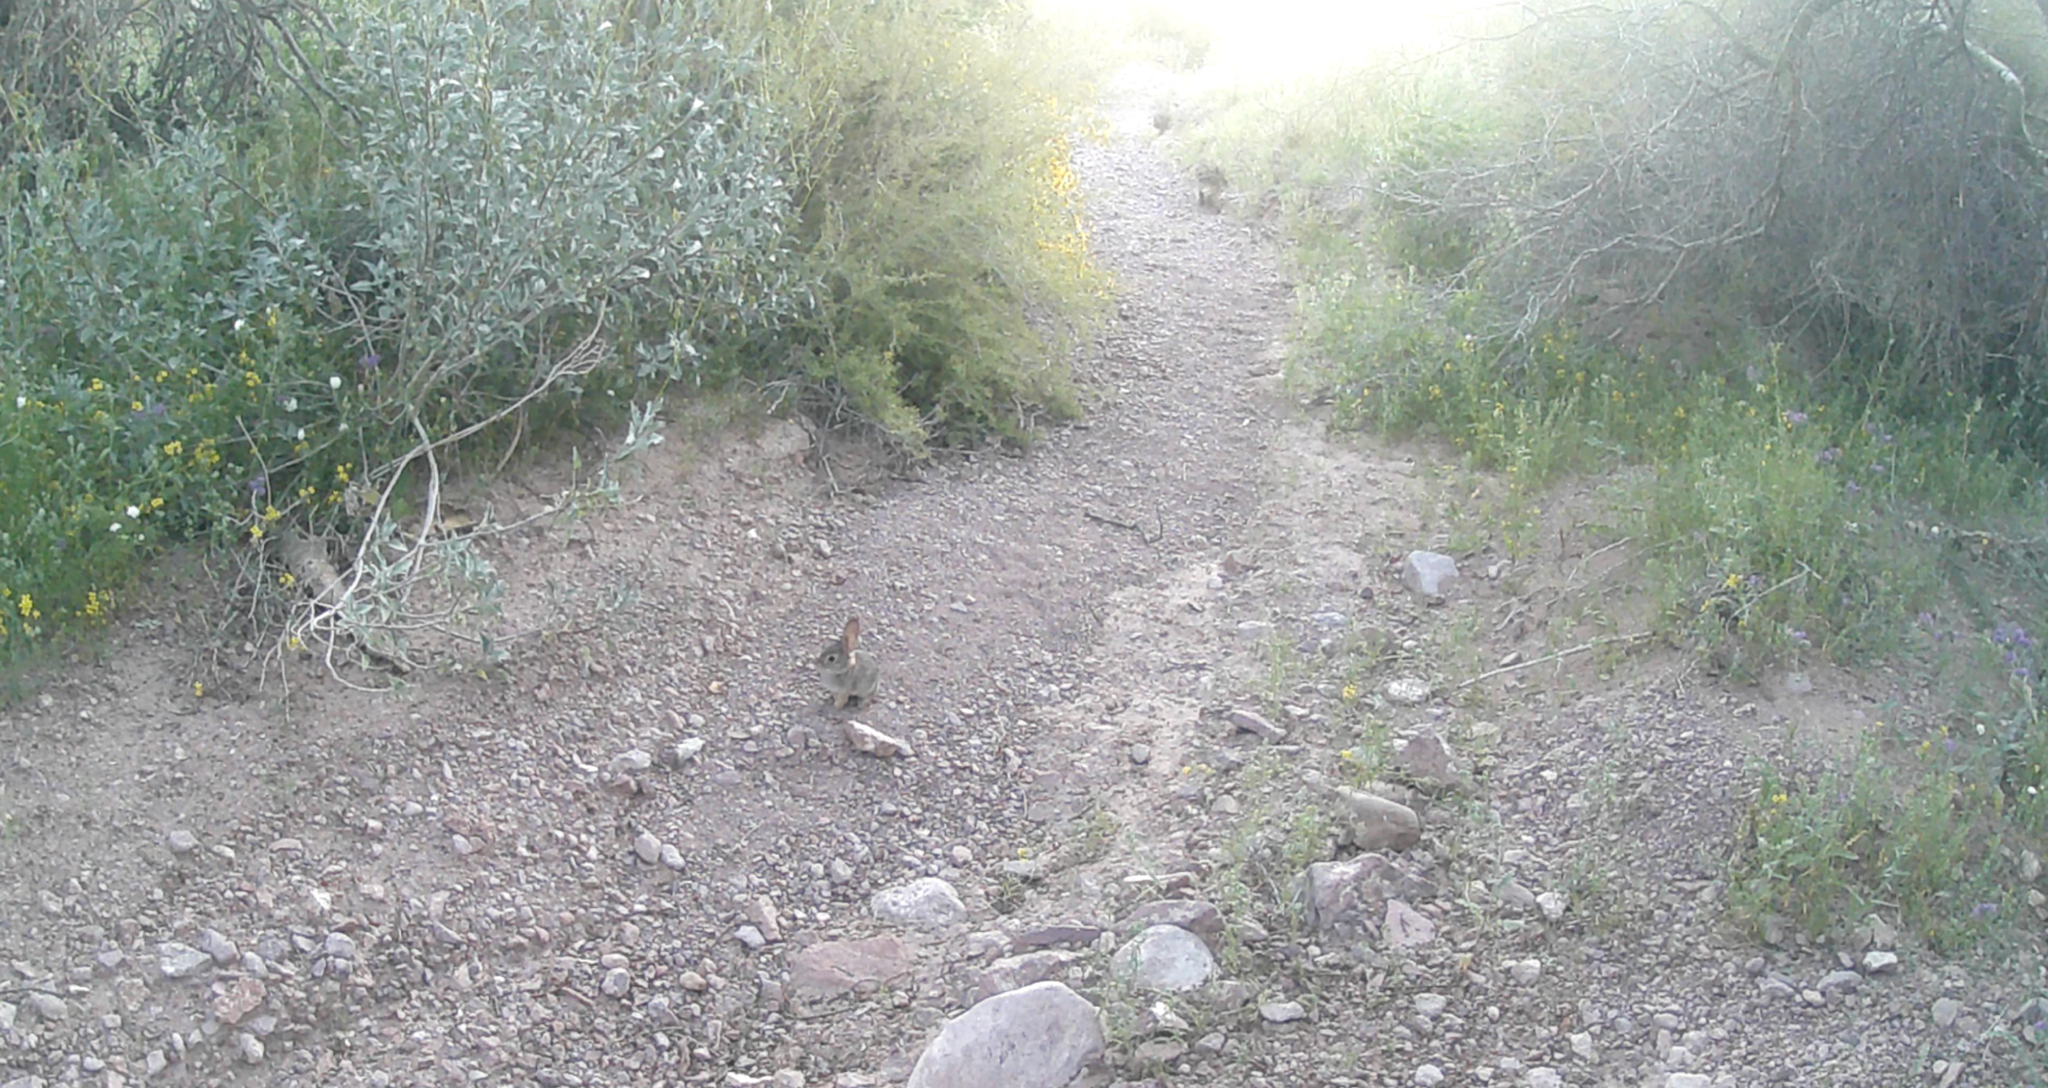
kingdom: Animalia
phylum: Chordata
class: Mammalia
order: Lagomorpha
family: Leporidae
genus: Sylvilagus
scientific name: Sylvilagus audubonii
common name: Desert cottontail
